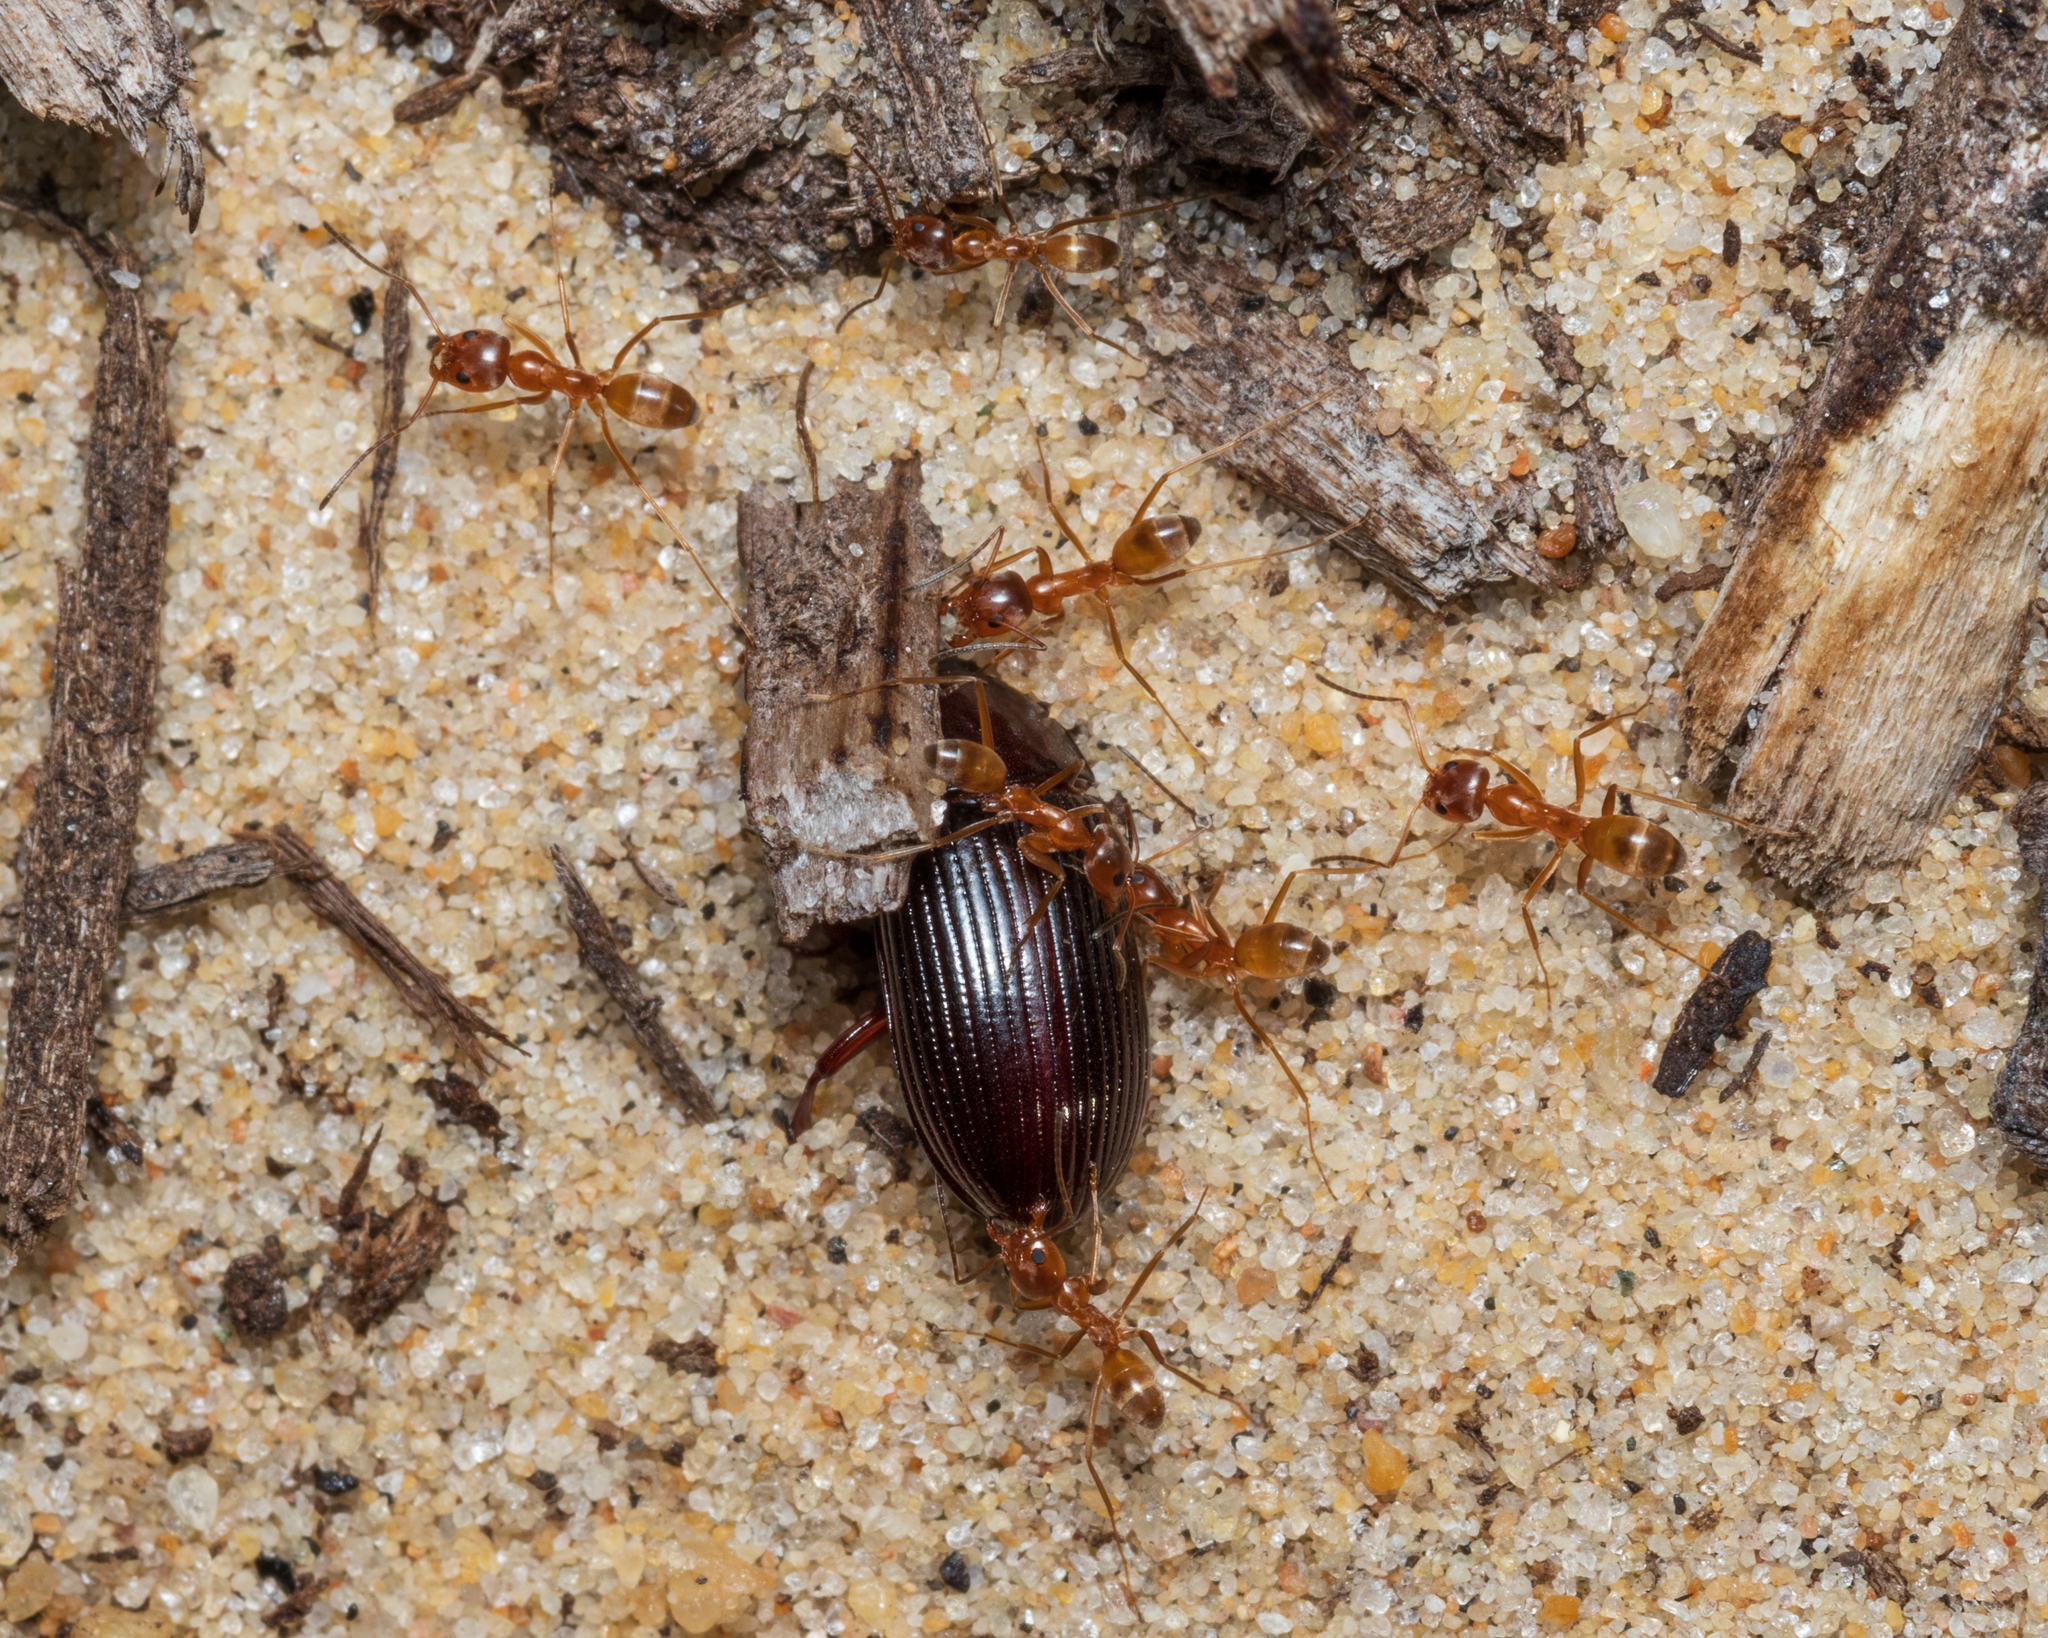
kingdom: Animalia
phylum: Arthropoda
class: Insecta
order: Hymenoptera
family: Formicidae
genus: Dorymyrmex
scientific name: Dorymyrmex bureni
